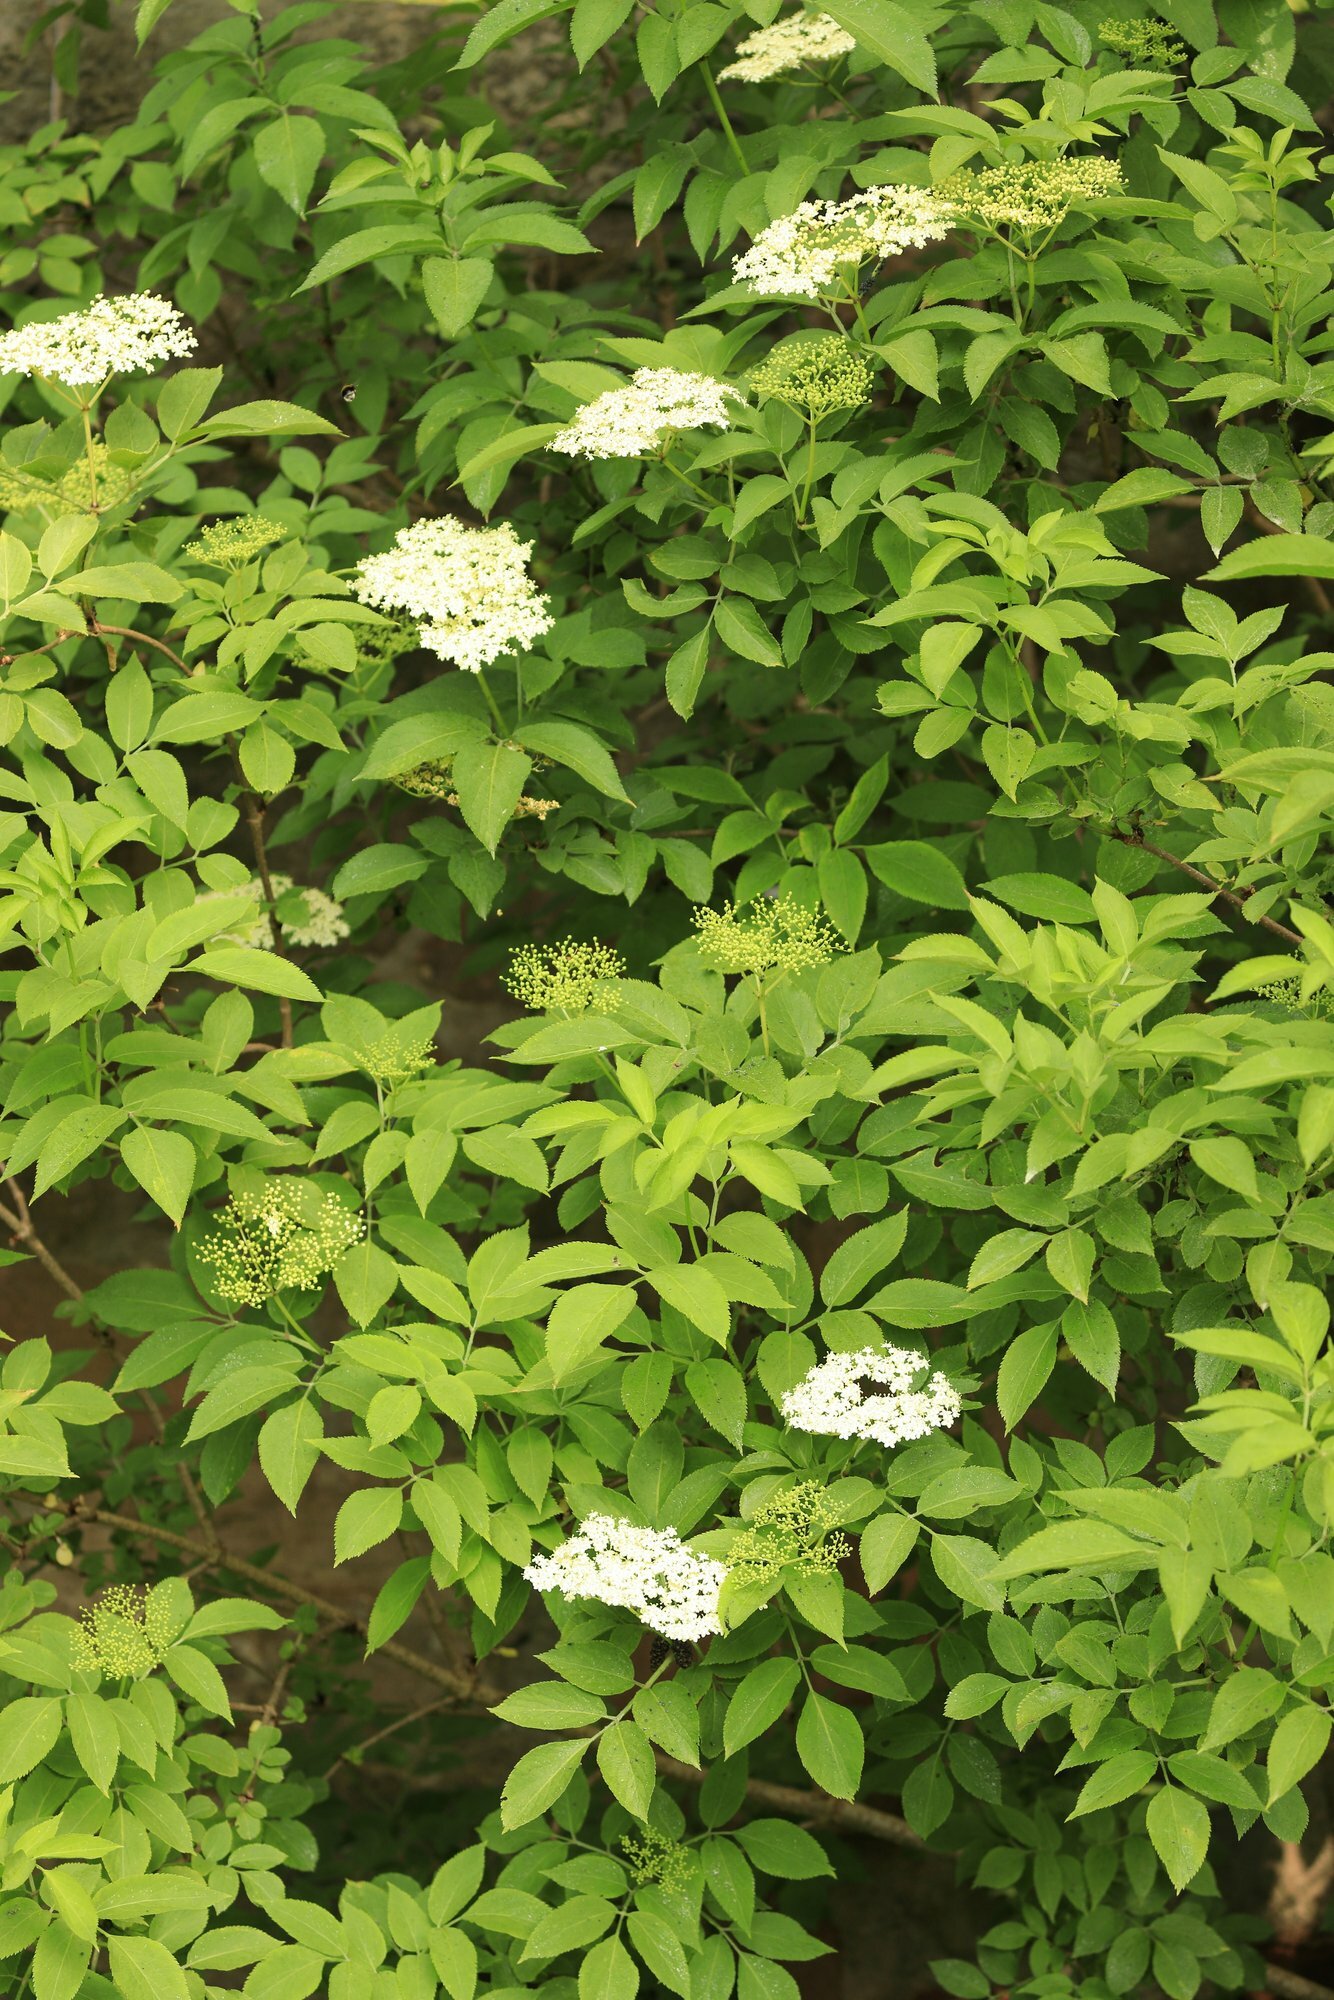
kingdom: Plantae
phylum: Tracheophyta
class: Magnoliopsida
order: Dipsacales
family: Viburnaceae
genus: Sambucus
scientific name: Sambucus nigra
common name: Elder
